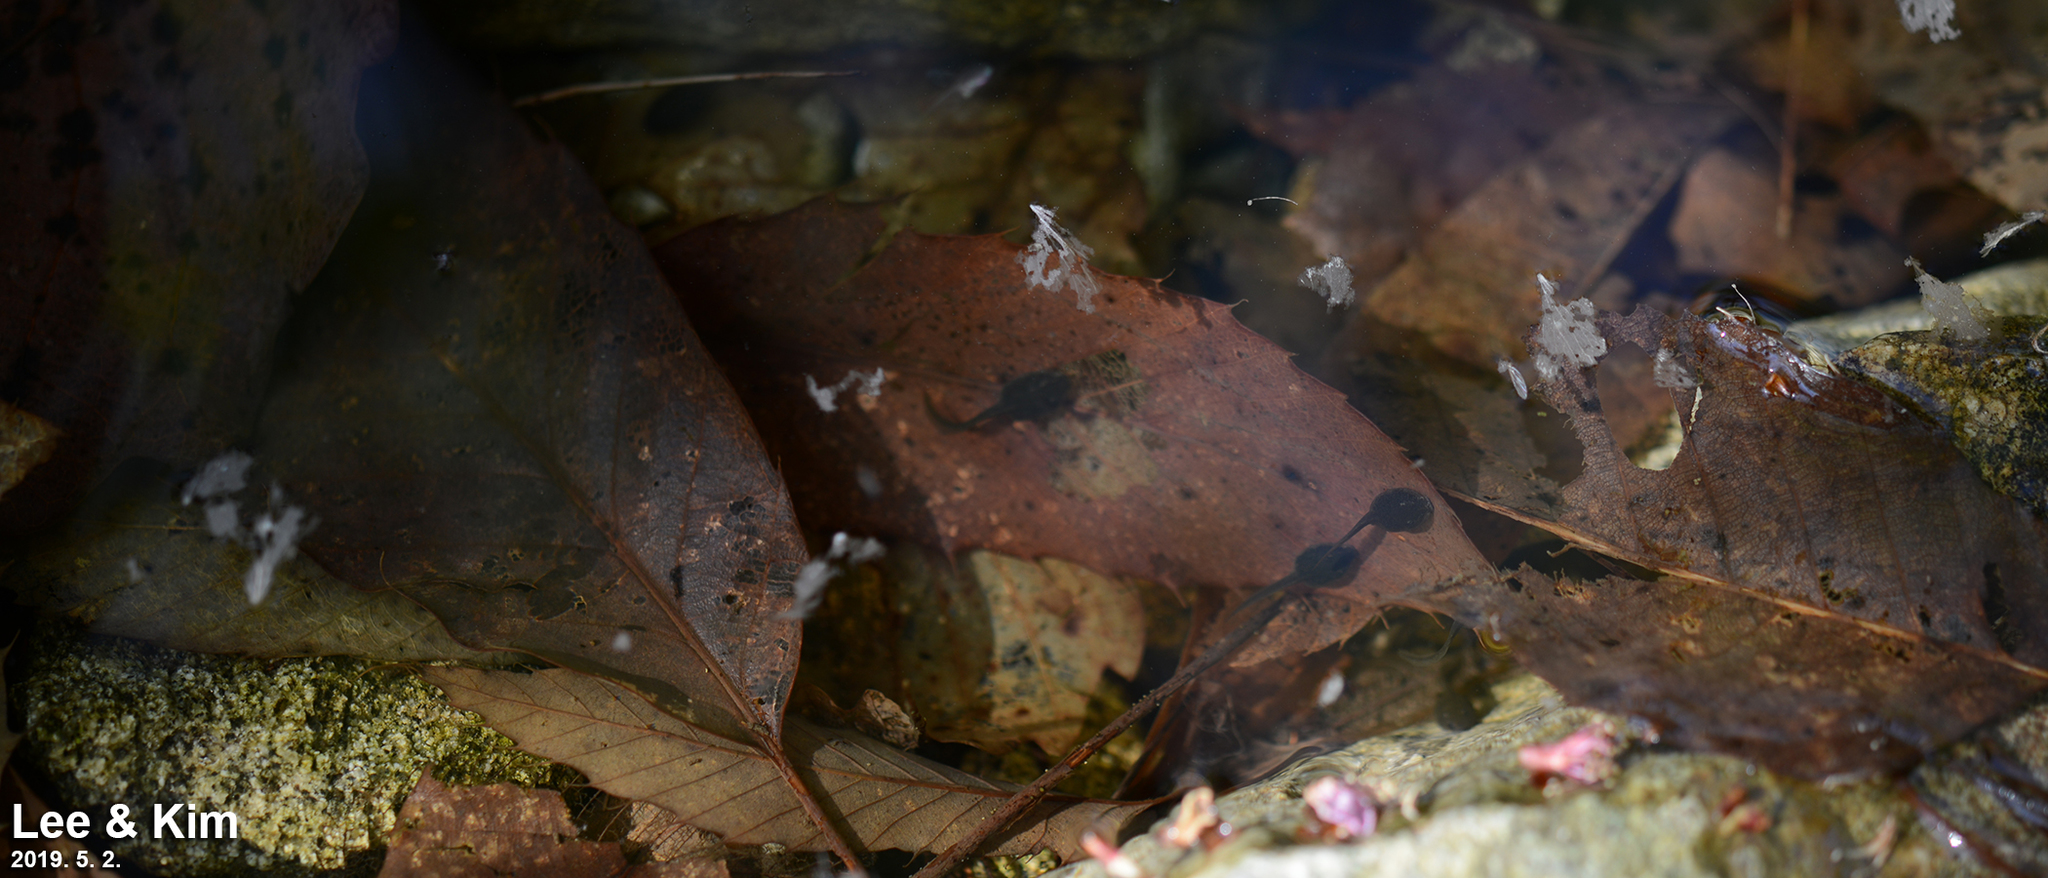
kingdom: Animalia
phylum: Chordata
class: Amphibia
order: Anura
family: Ranidae
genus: Rana
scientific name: Rana huanrenensis
